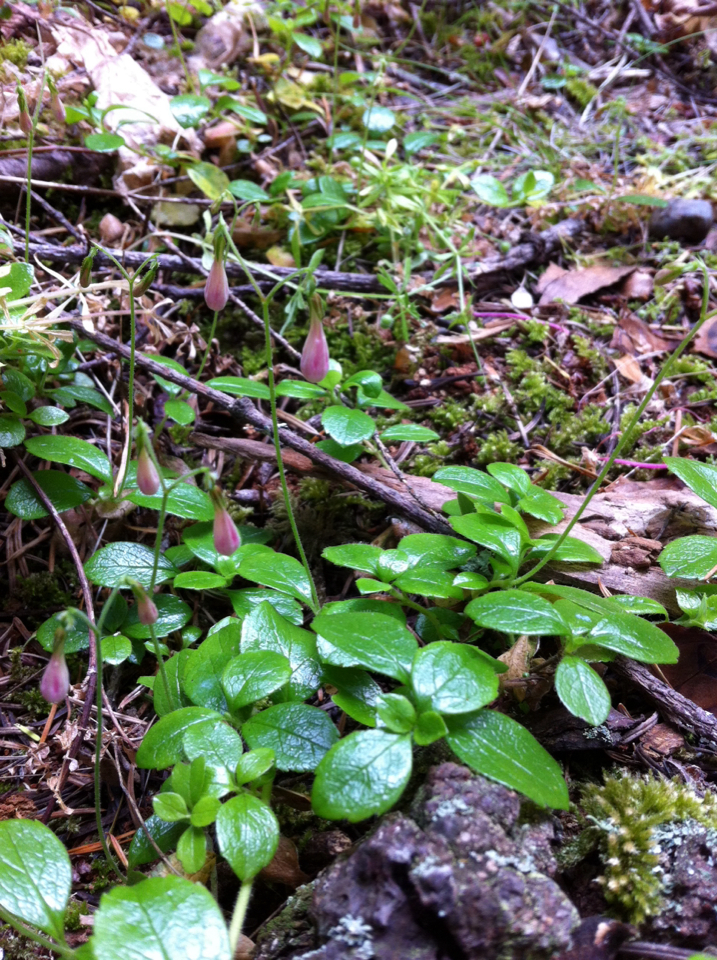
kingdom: Plantae
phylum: Tracheophyta
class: Magnoliopsida
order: Dipsacales
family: Caprifoliaceae
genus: Linnaea
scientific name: Linnaea borealis
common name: Twinflower
